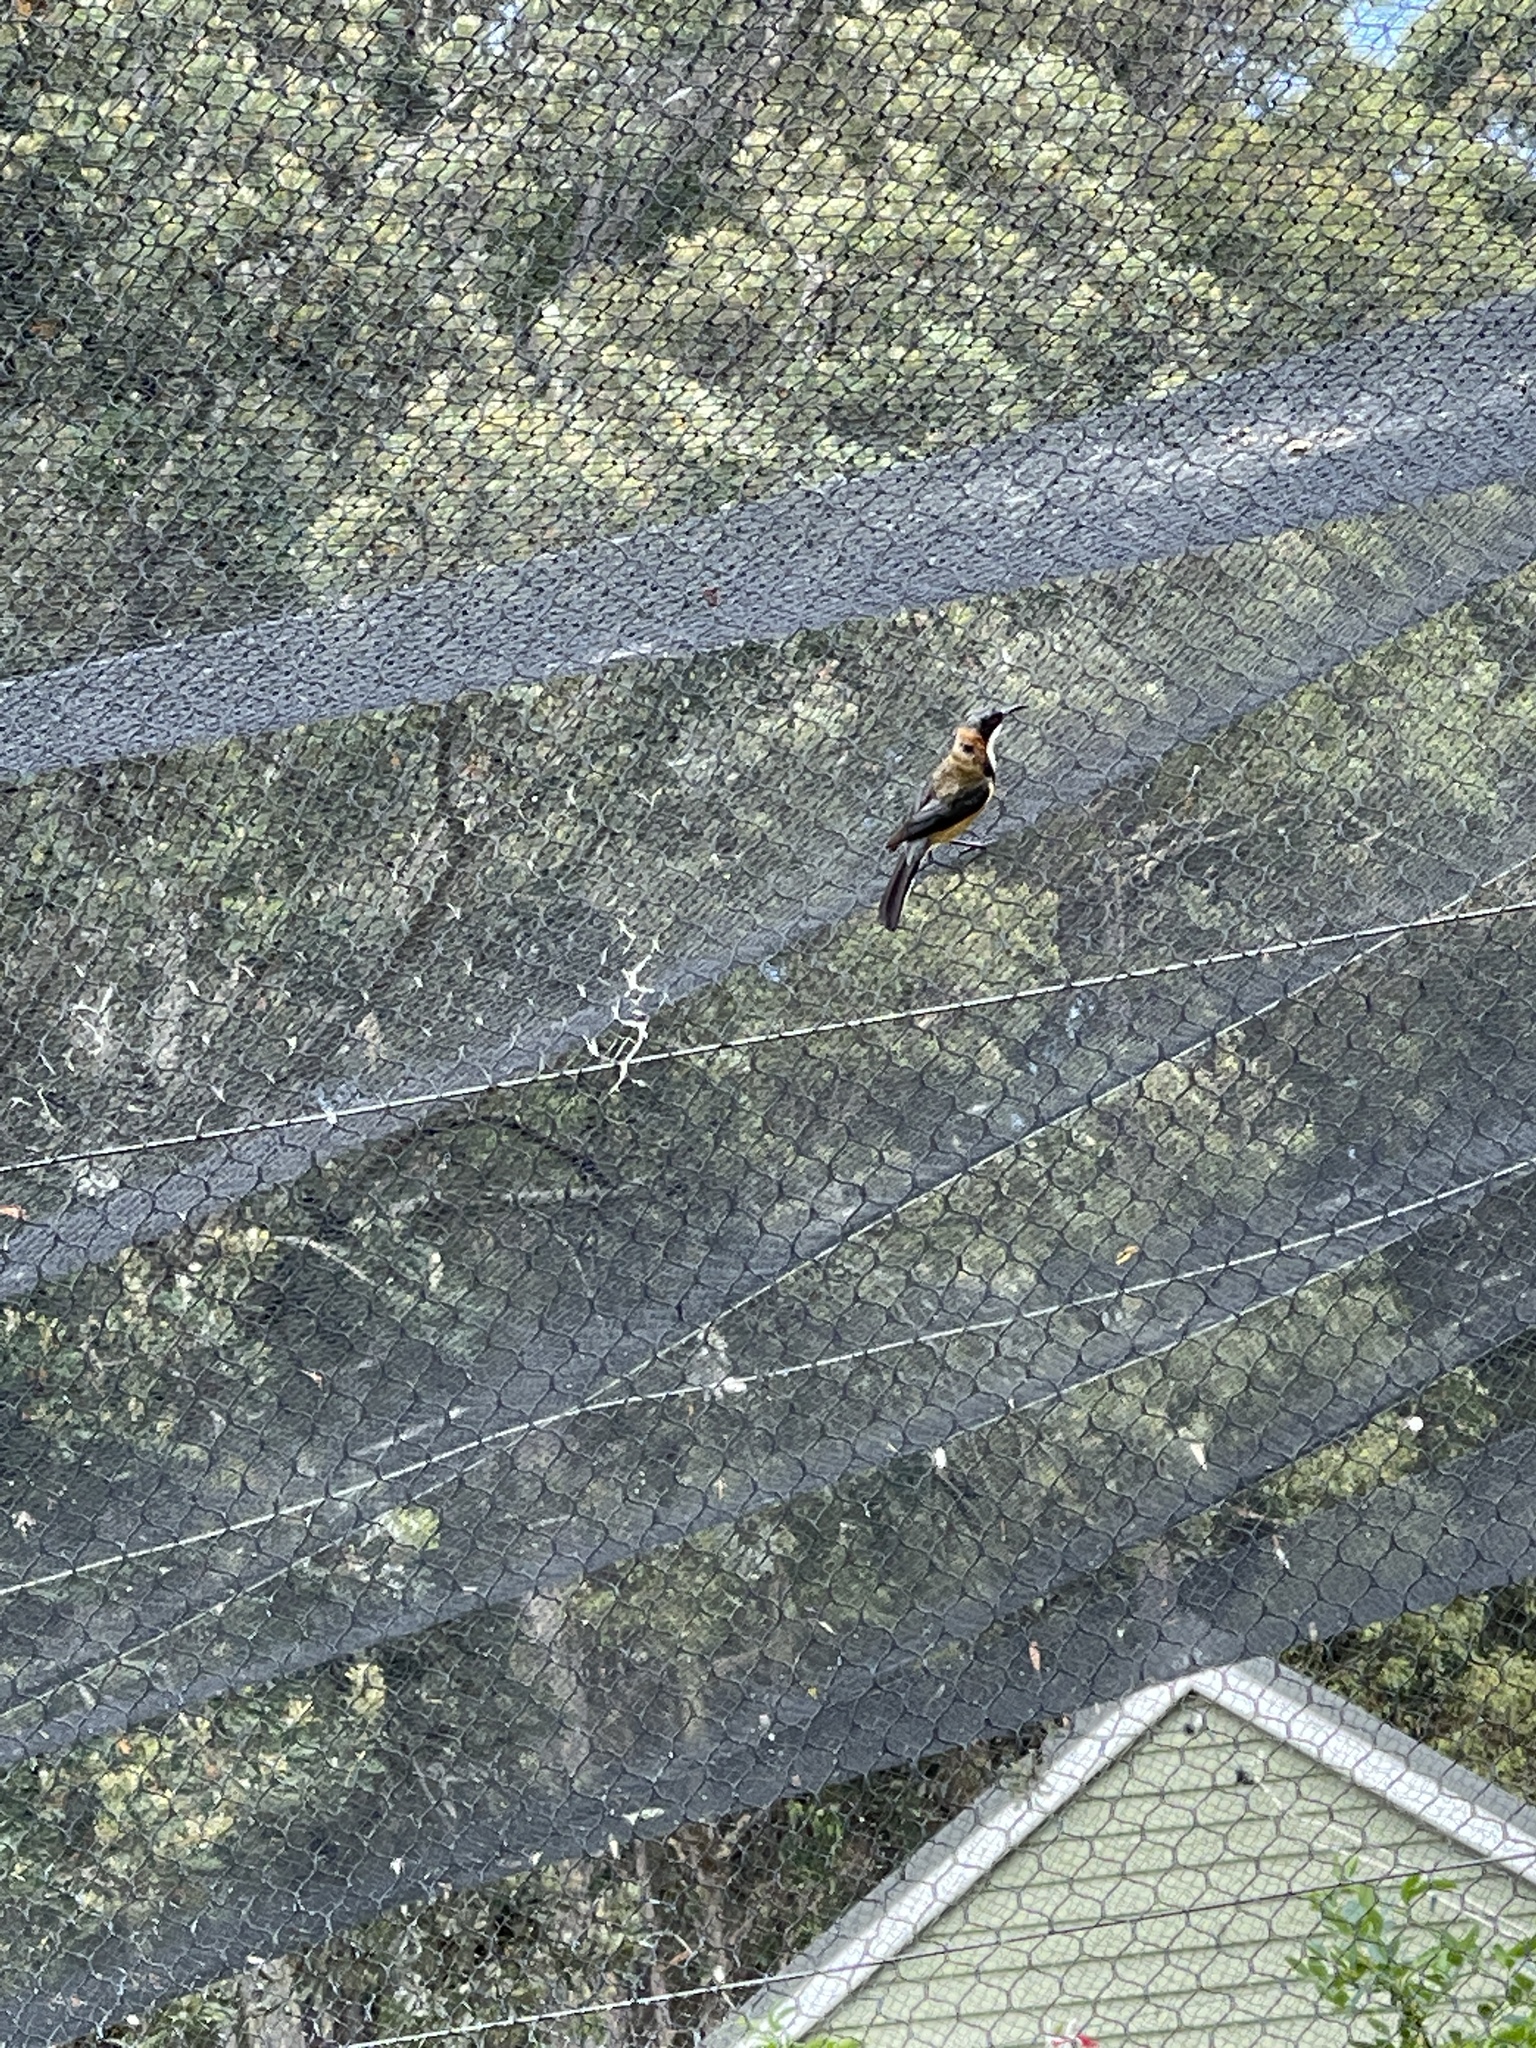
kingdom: Animalia
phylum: Chordata
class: Aves
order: Passeriformes
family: Meliphagidae
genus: Acanthorhynchus
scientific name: Acanthorhynchus tenuirostris
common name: Eastern spinebill
